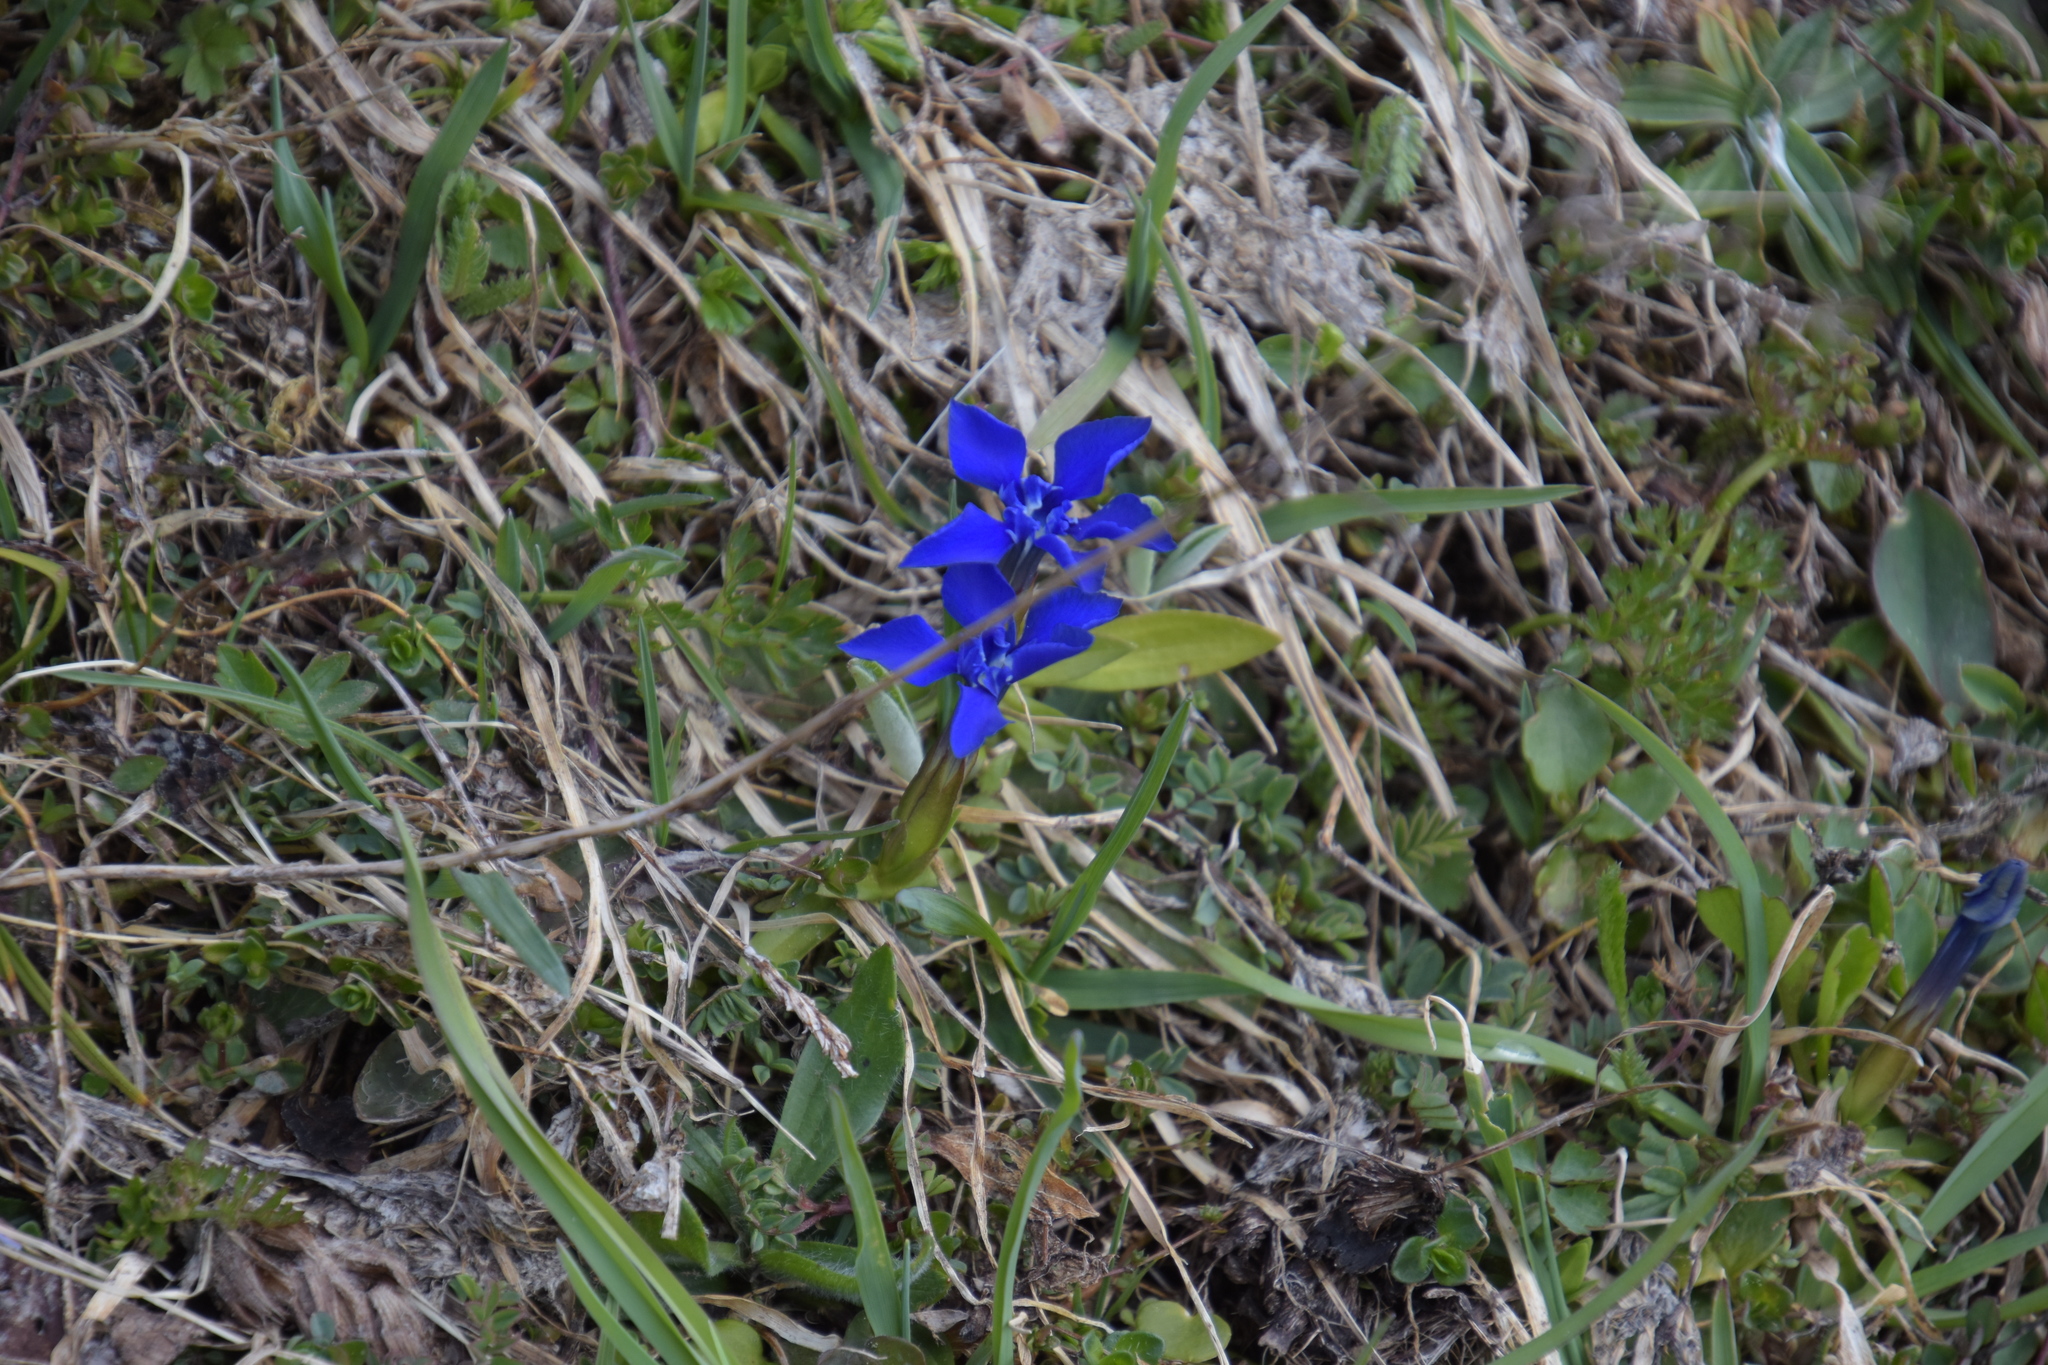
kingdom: Plantae
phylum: Tracheophyta
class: Magnoliopsida
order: Gentianales
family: Gentianaceae
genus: Gentiana
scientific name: Gentiana verna
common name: Spring gentian
